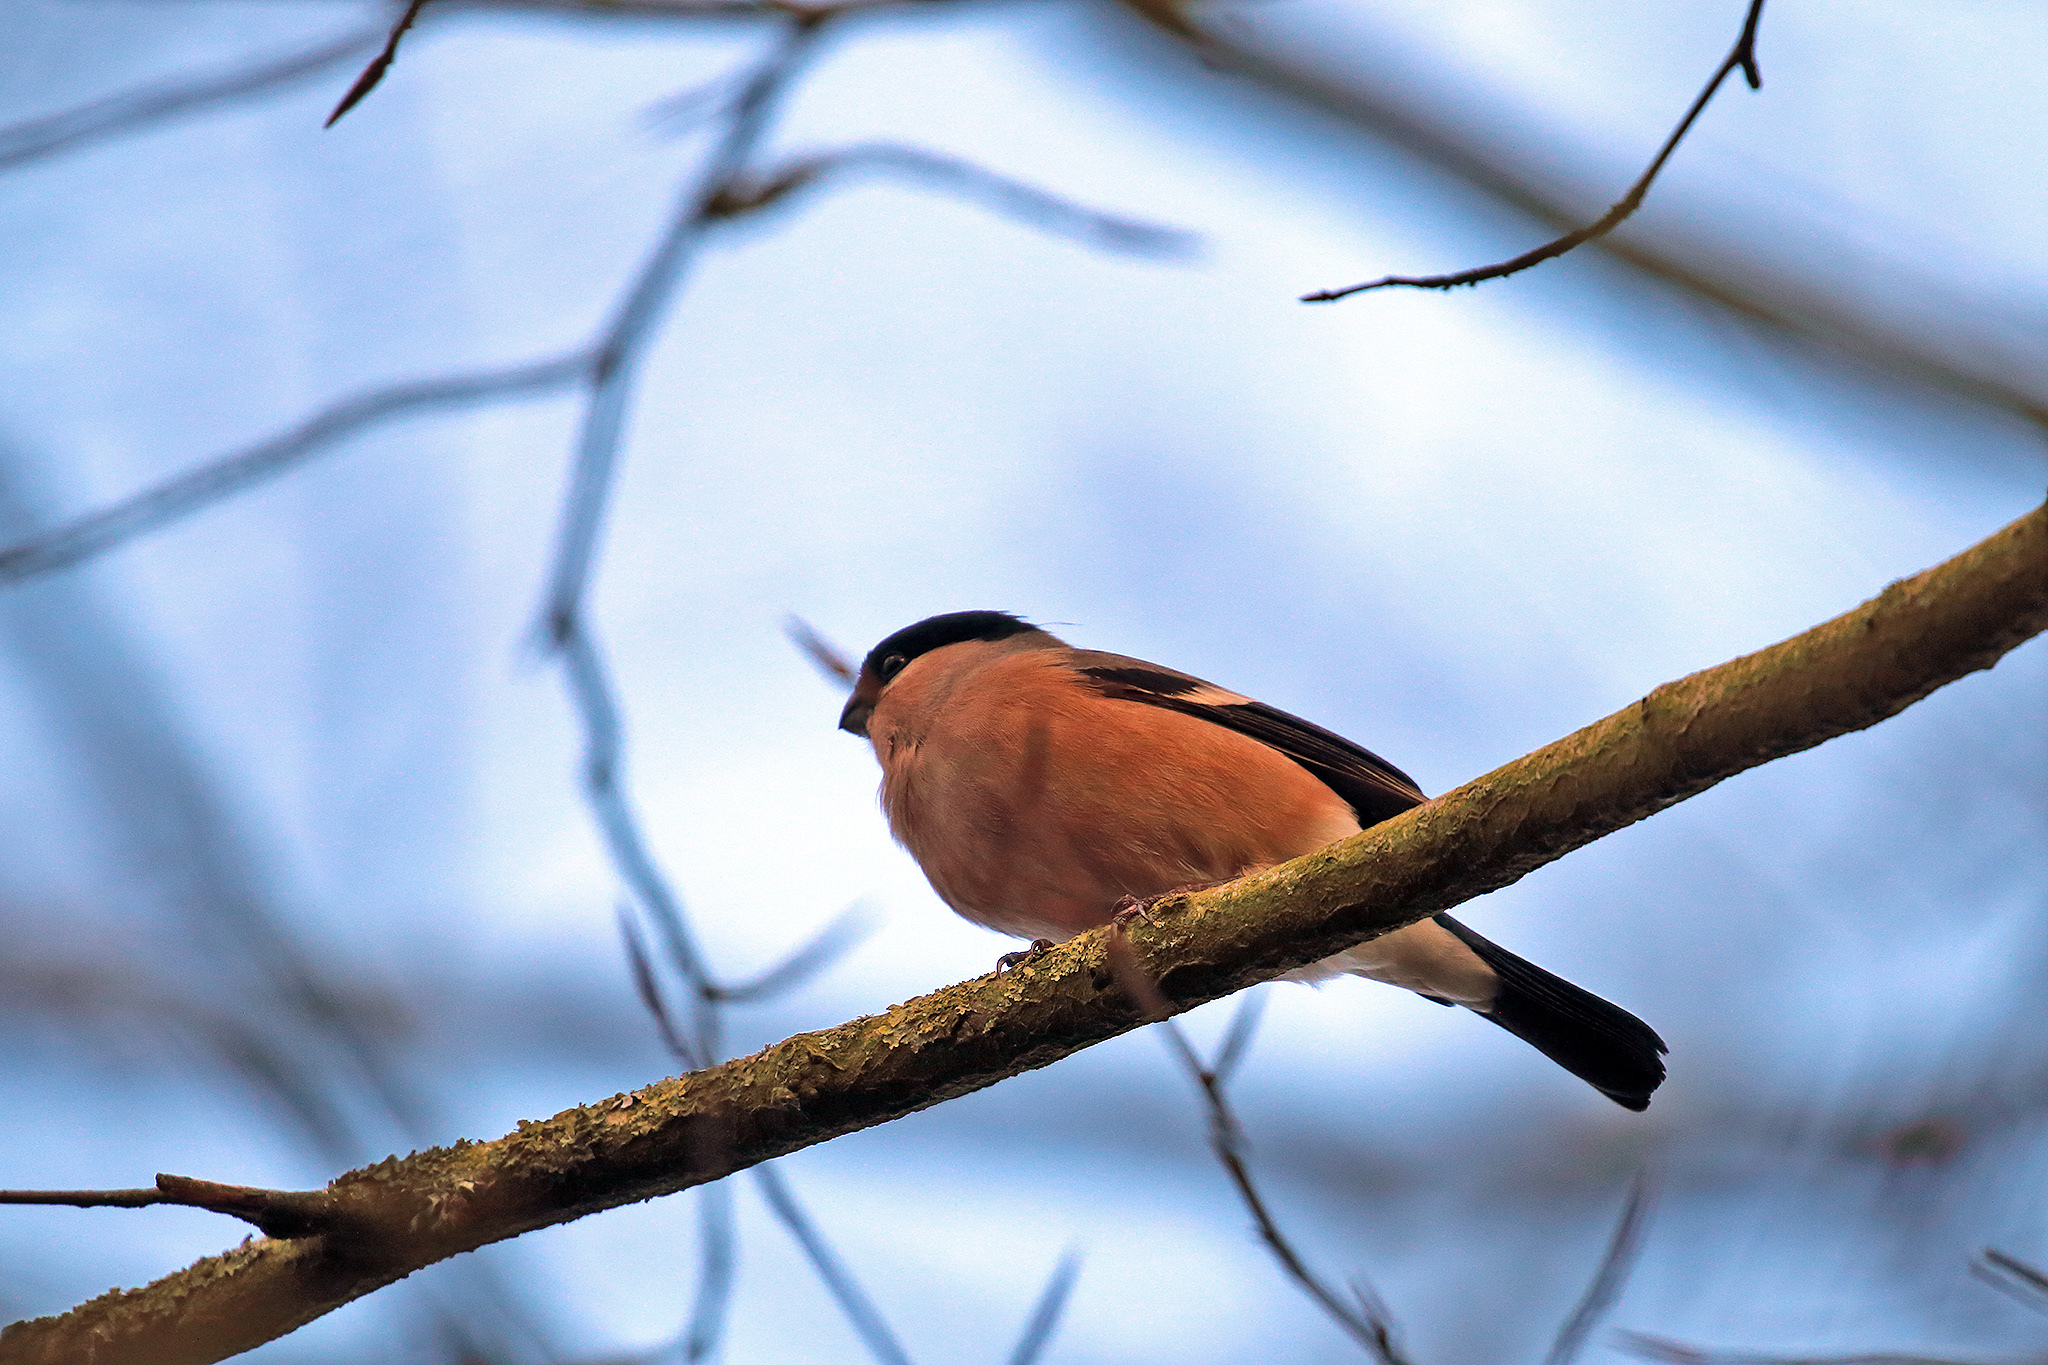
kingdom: Animalia
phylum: Chordata
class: Aves
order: Passeriformes
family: Fringillidae
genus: Pyrrhula
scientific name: Pyrrhula pyrrhula
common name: Eurasian bullfinch
